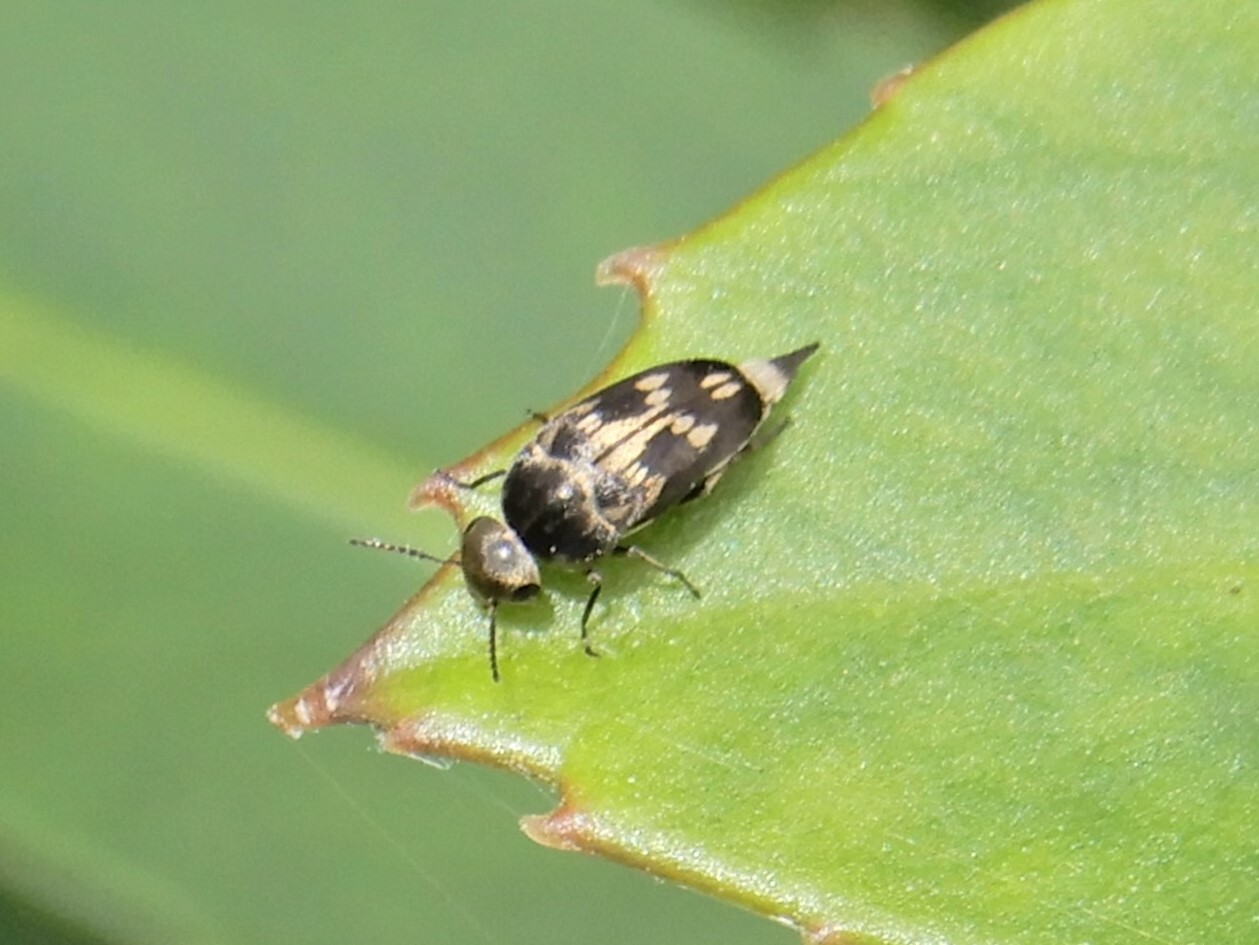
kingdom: Animalia
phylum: Arthropoda
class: Insecta
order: Coleoptera
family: Mordellidae
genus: Zeamordella
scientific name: Zeamordella monacha
